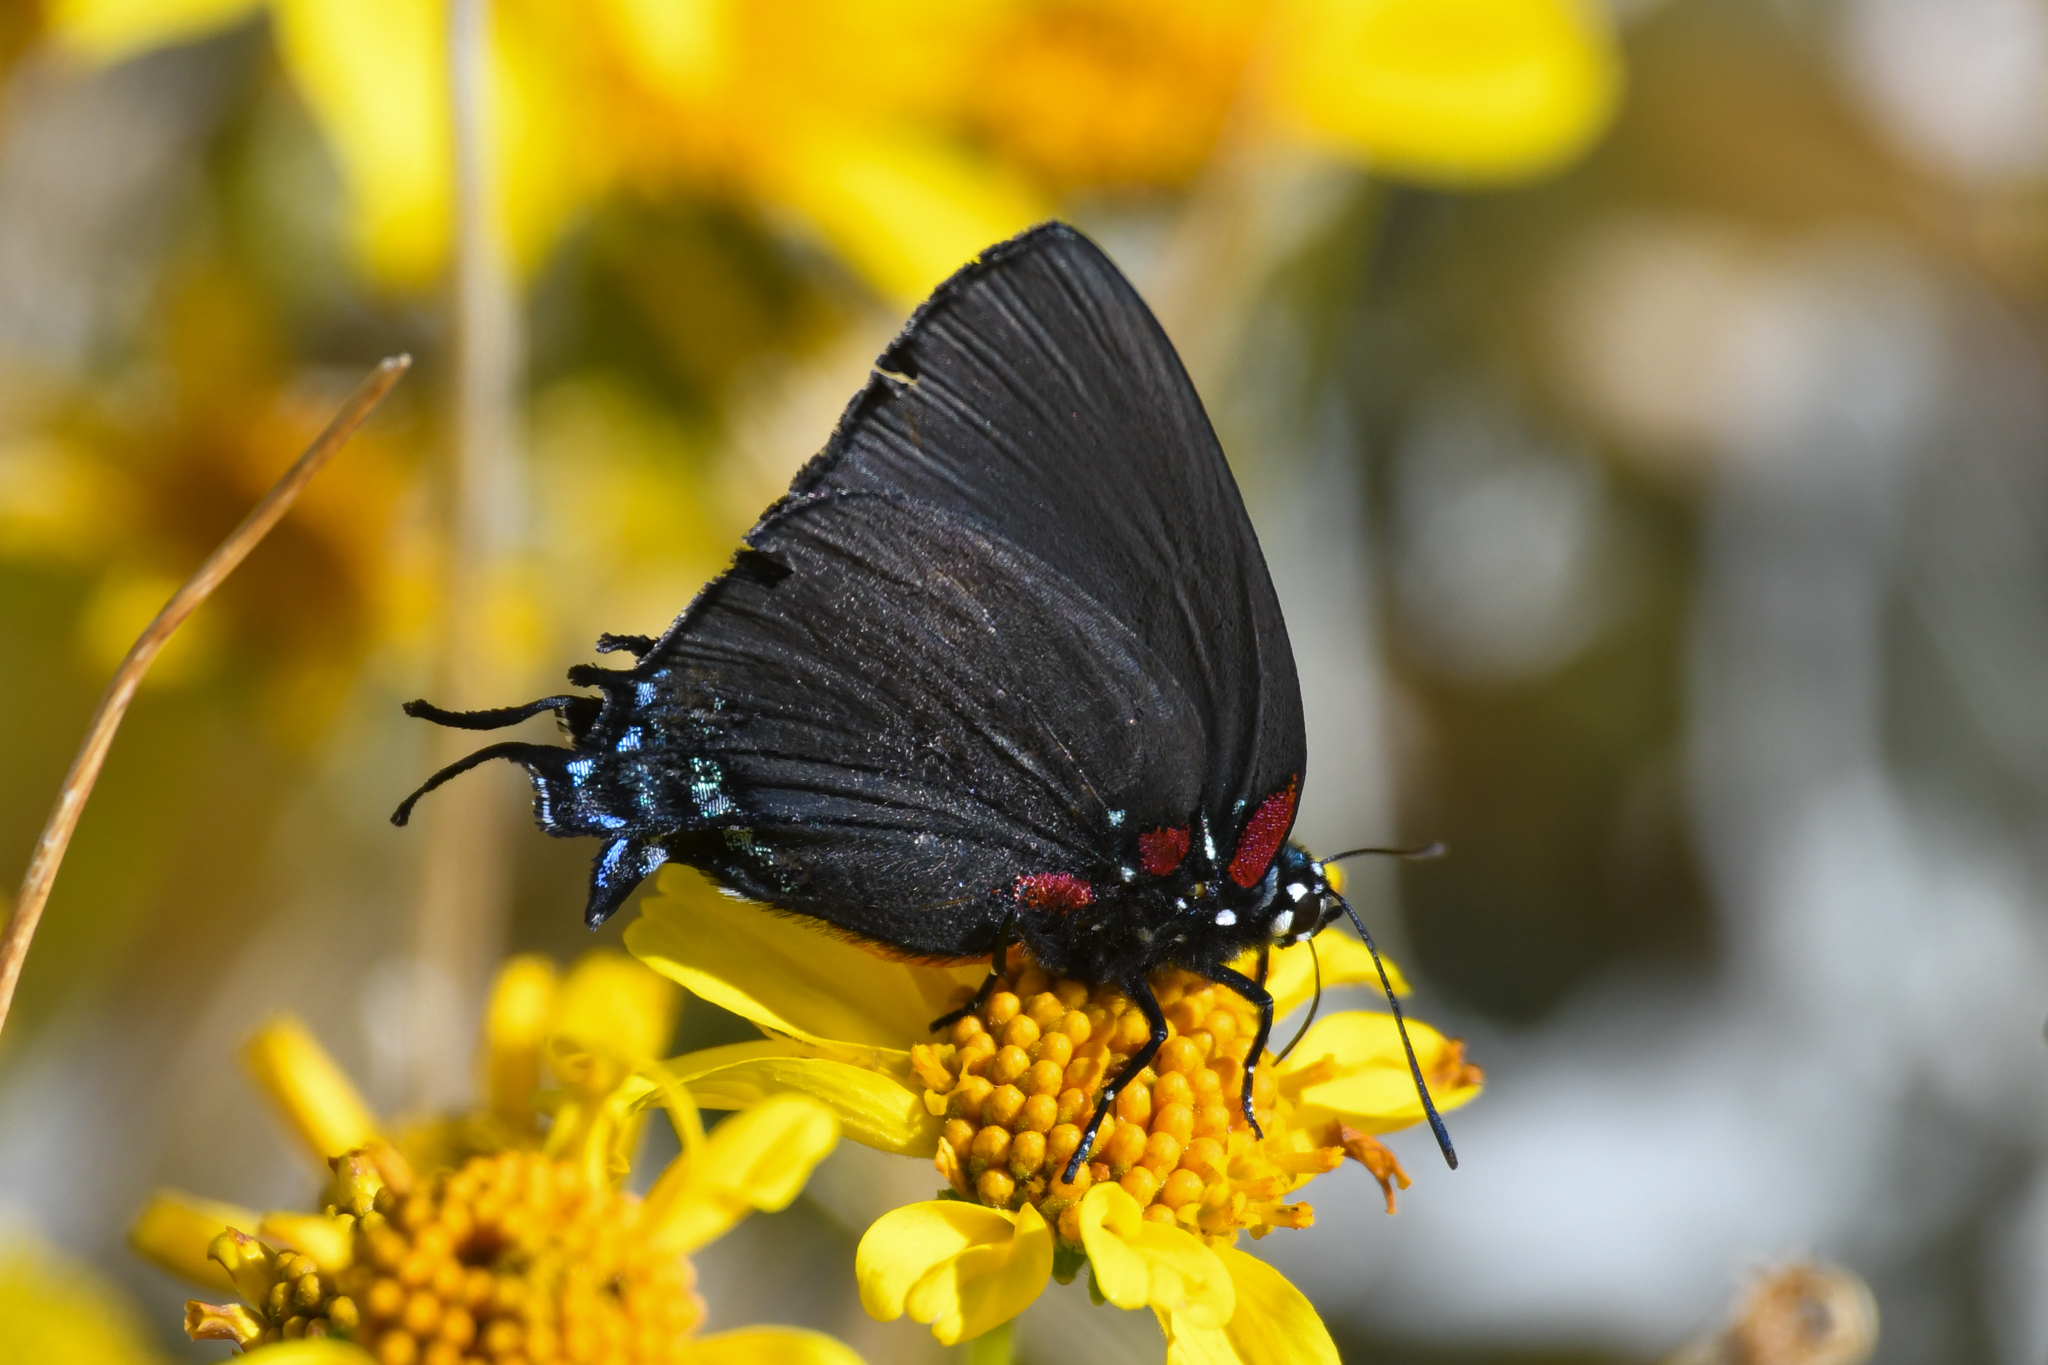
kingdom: Animalia
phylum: Arthropoda
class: Insecta
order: Lepidoptera
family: Lycaenidae
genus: Atlides
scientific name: Atlides halesus
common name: Great purple hairstreak
